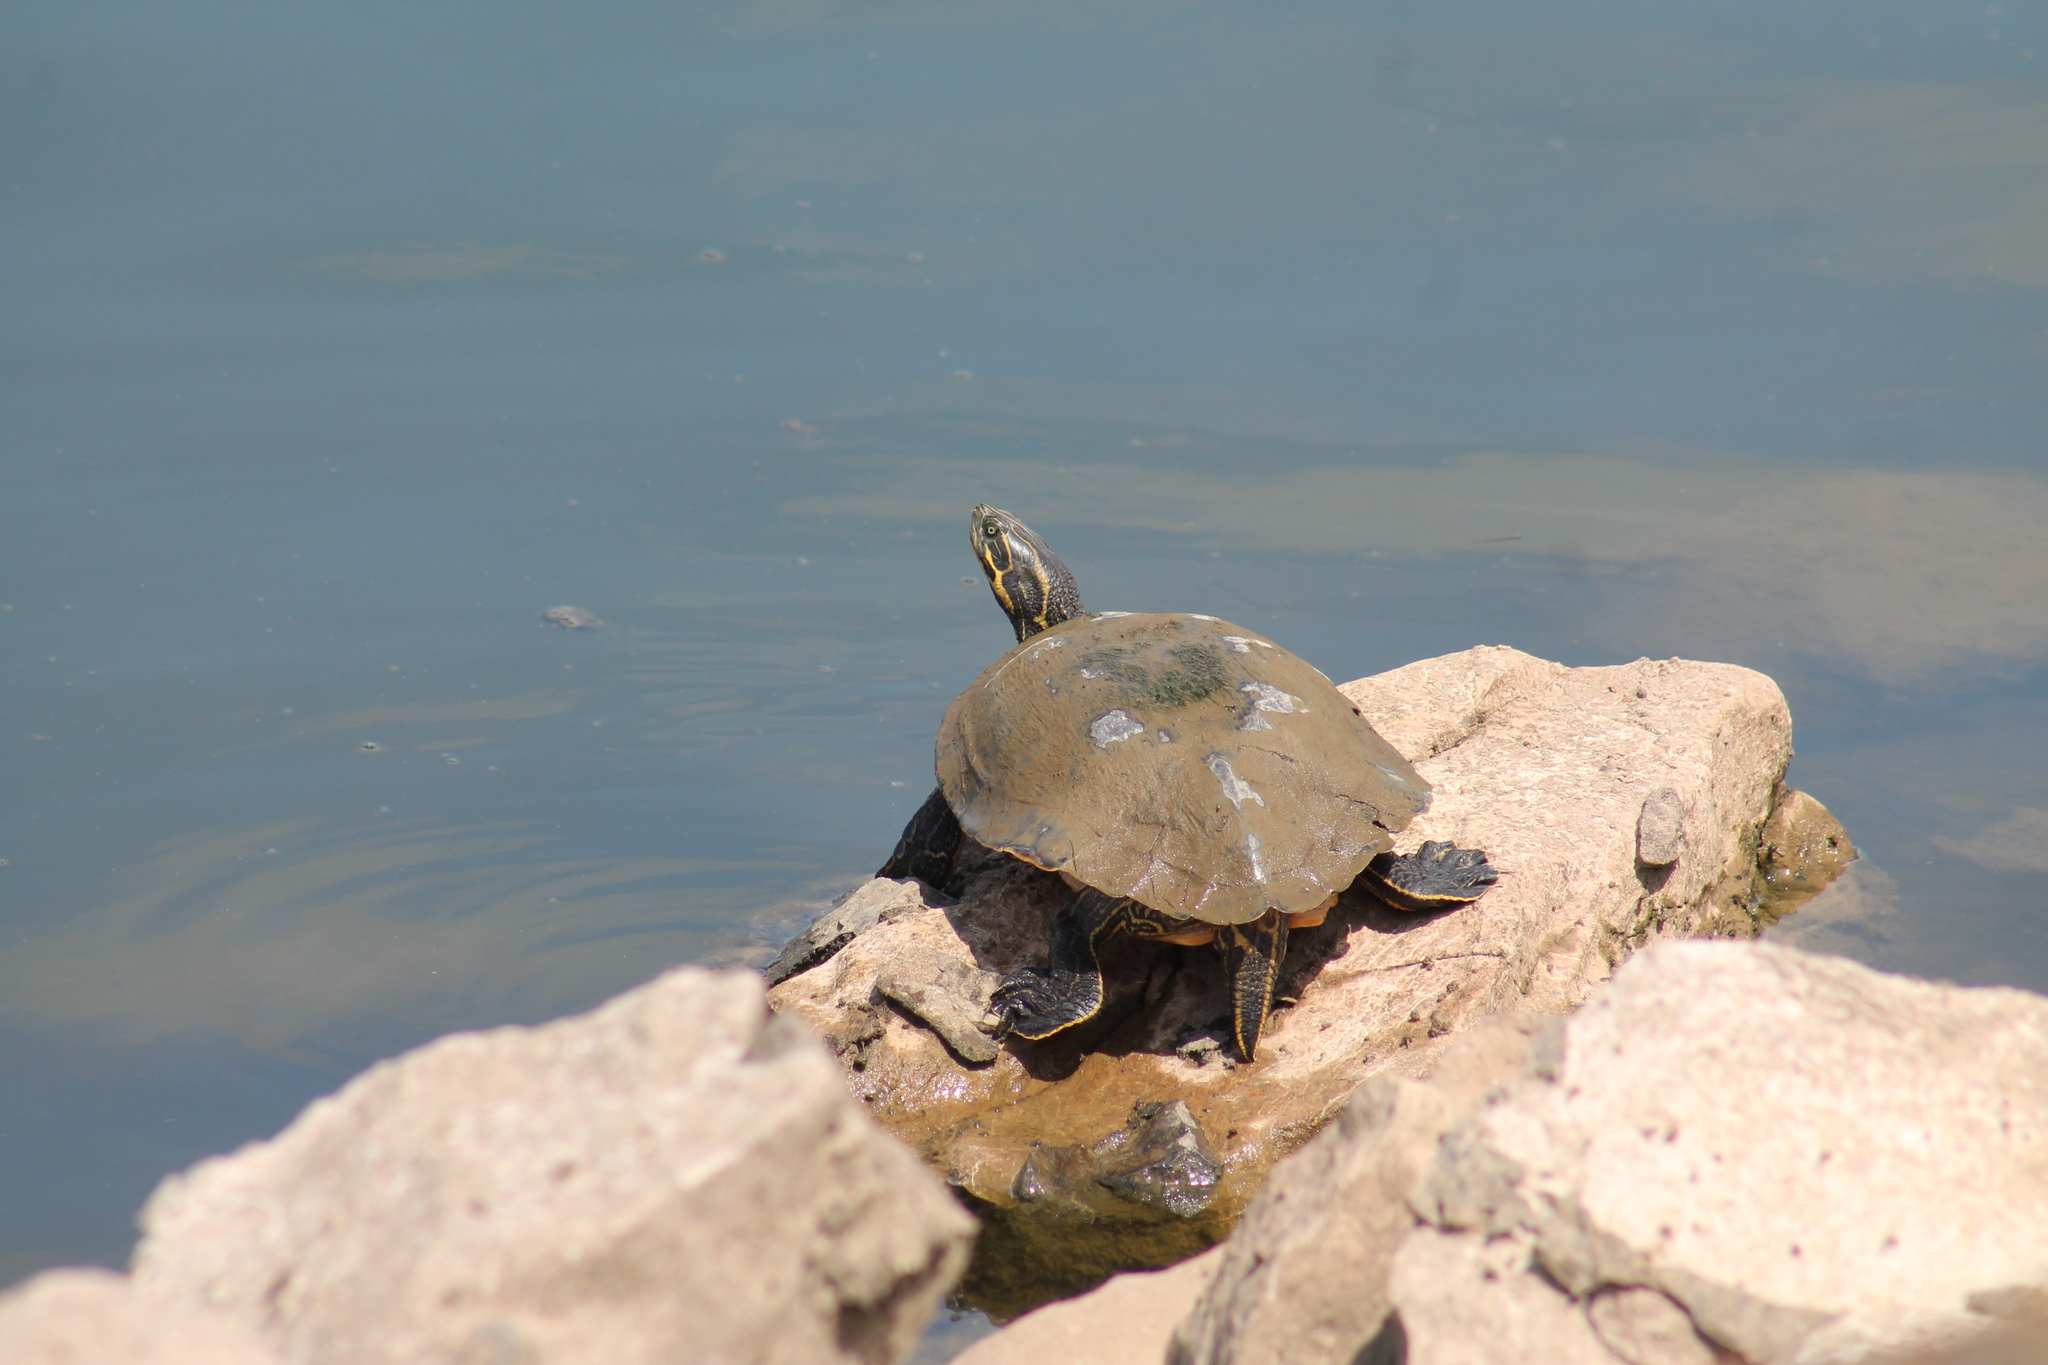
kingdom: Animalia
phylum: Chordata
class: Testudines
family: Emydidae
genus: Pseudemys
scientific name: Pseudemys concinna
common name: Eastern river cooter
